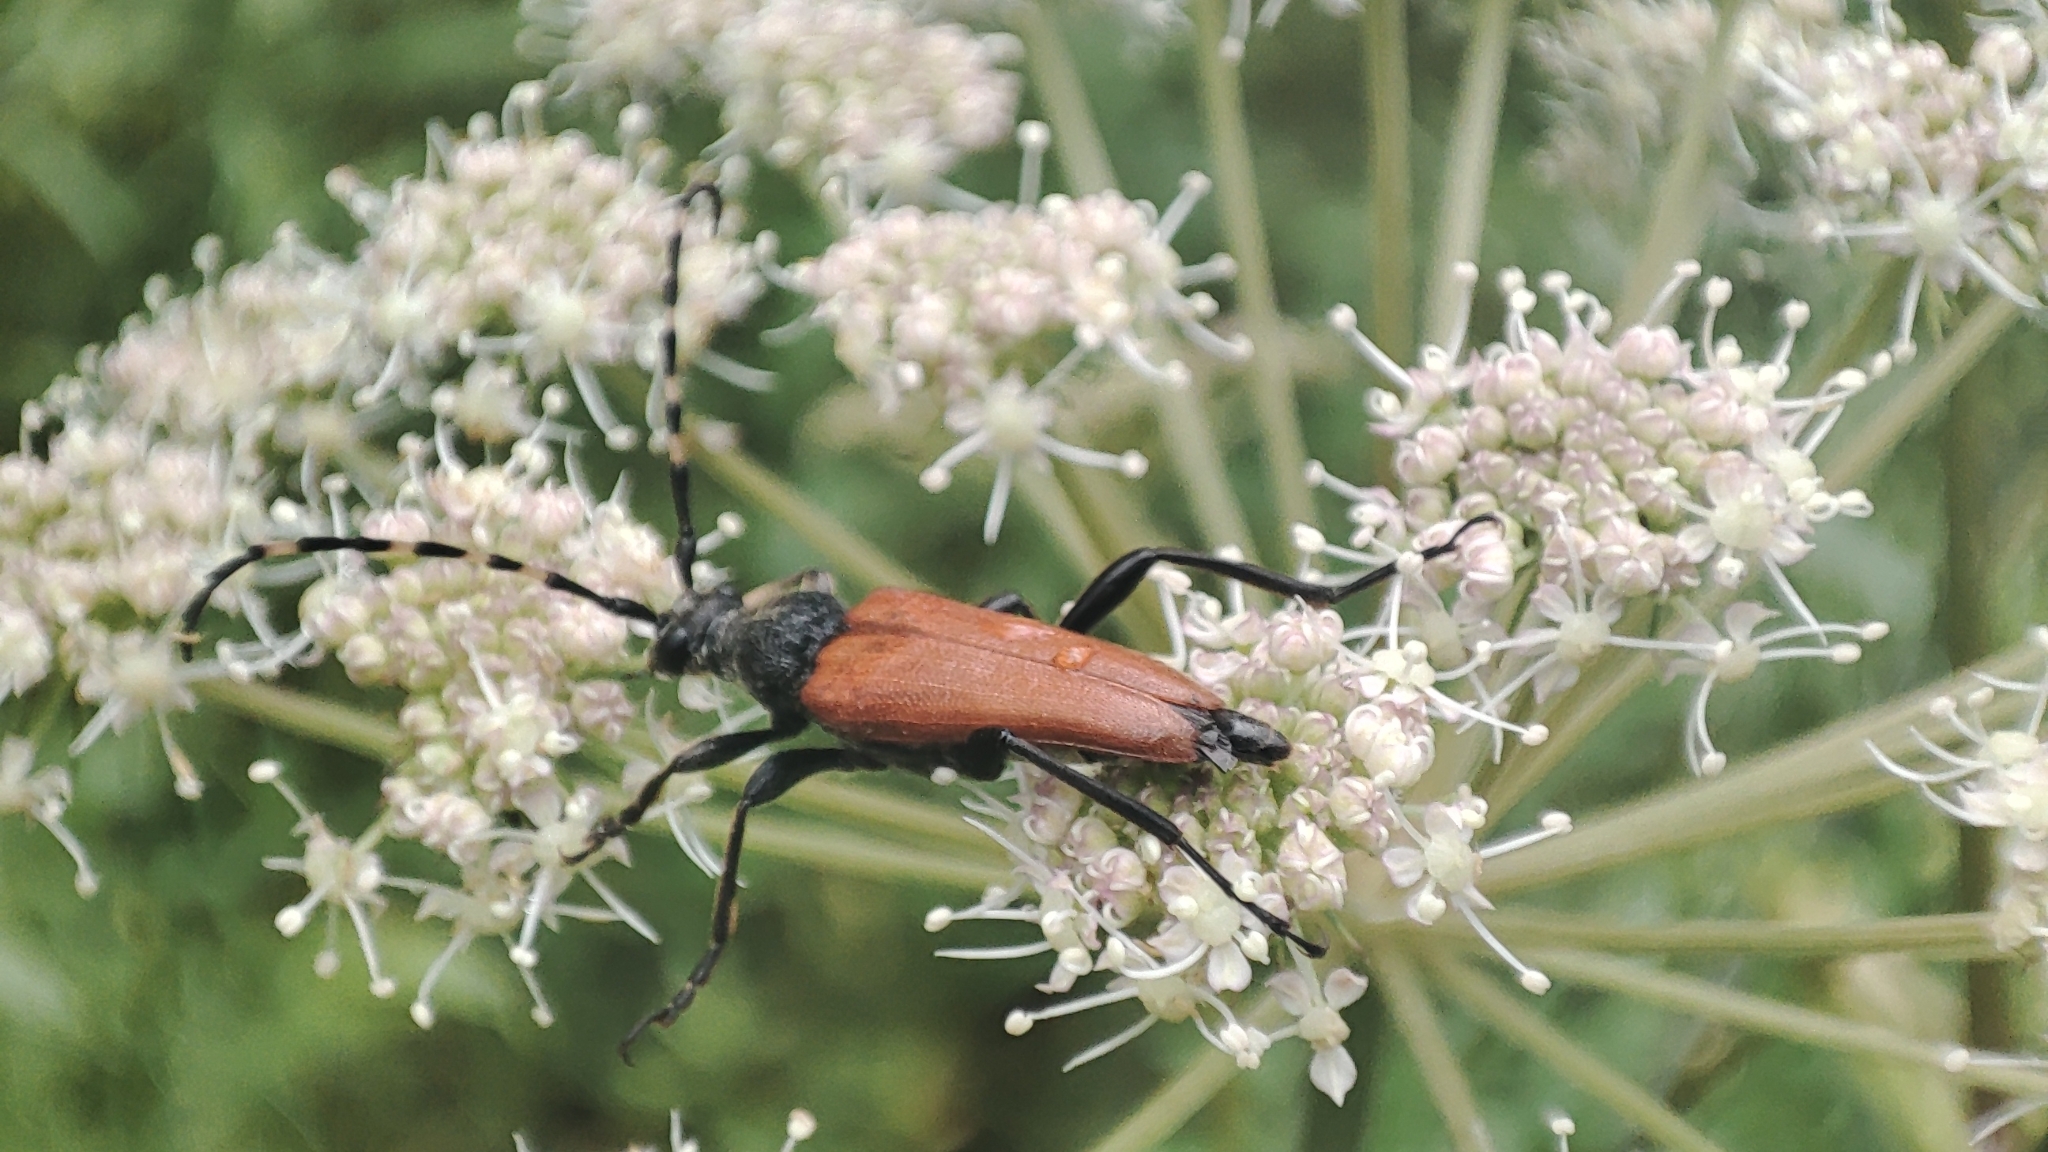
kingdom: Animalia
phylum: Arthropoda
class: Insecta
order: Coleoptera
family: Cerambycidae
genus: Stictoleptura
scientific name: Stictoleptura variicornis
